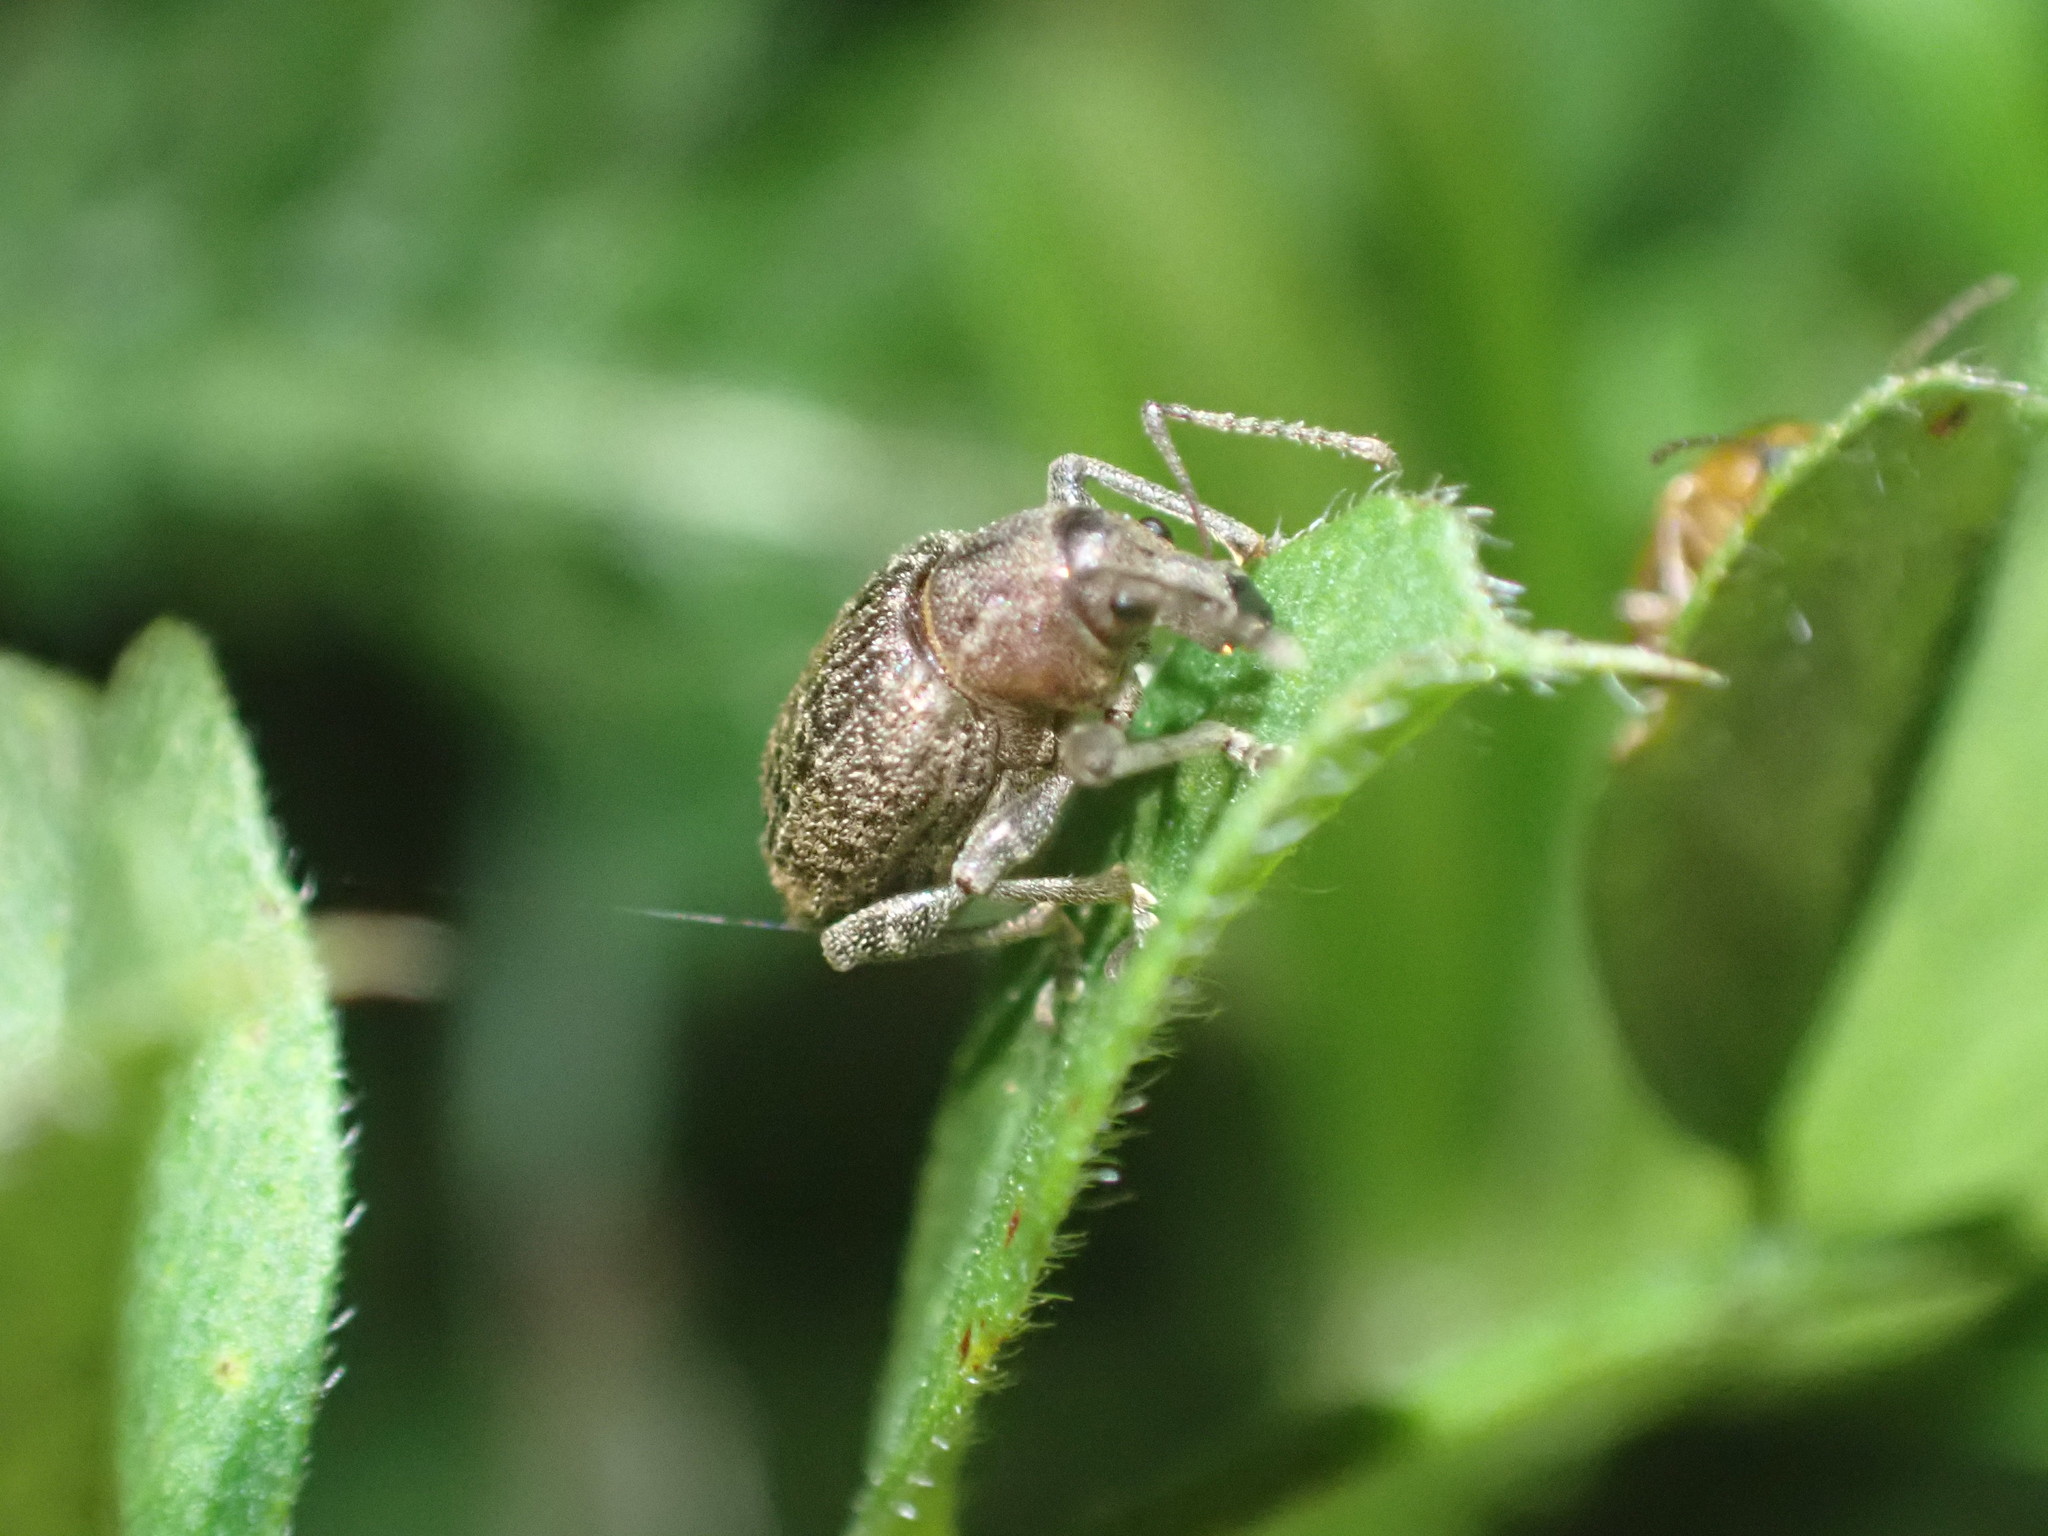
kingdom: Animalia
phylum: Arthropoda
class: Insecta
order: Coleoptera
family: Curculionidae
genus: Phlyctinus
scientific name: Phlyctinus callosus
